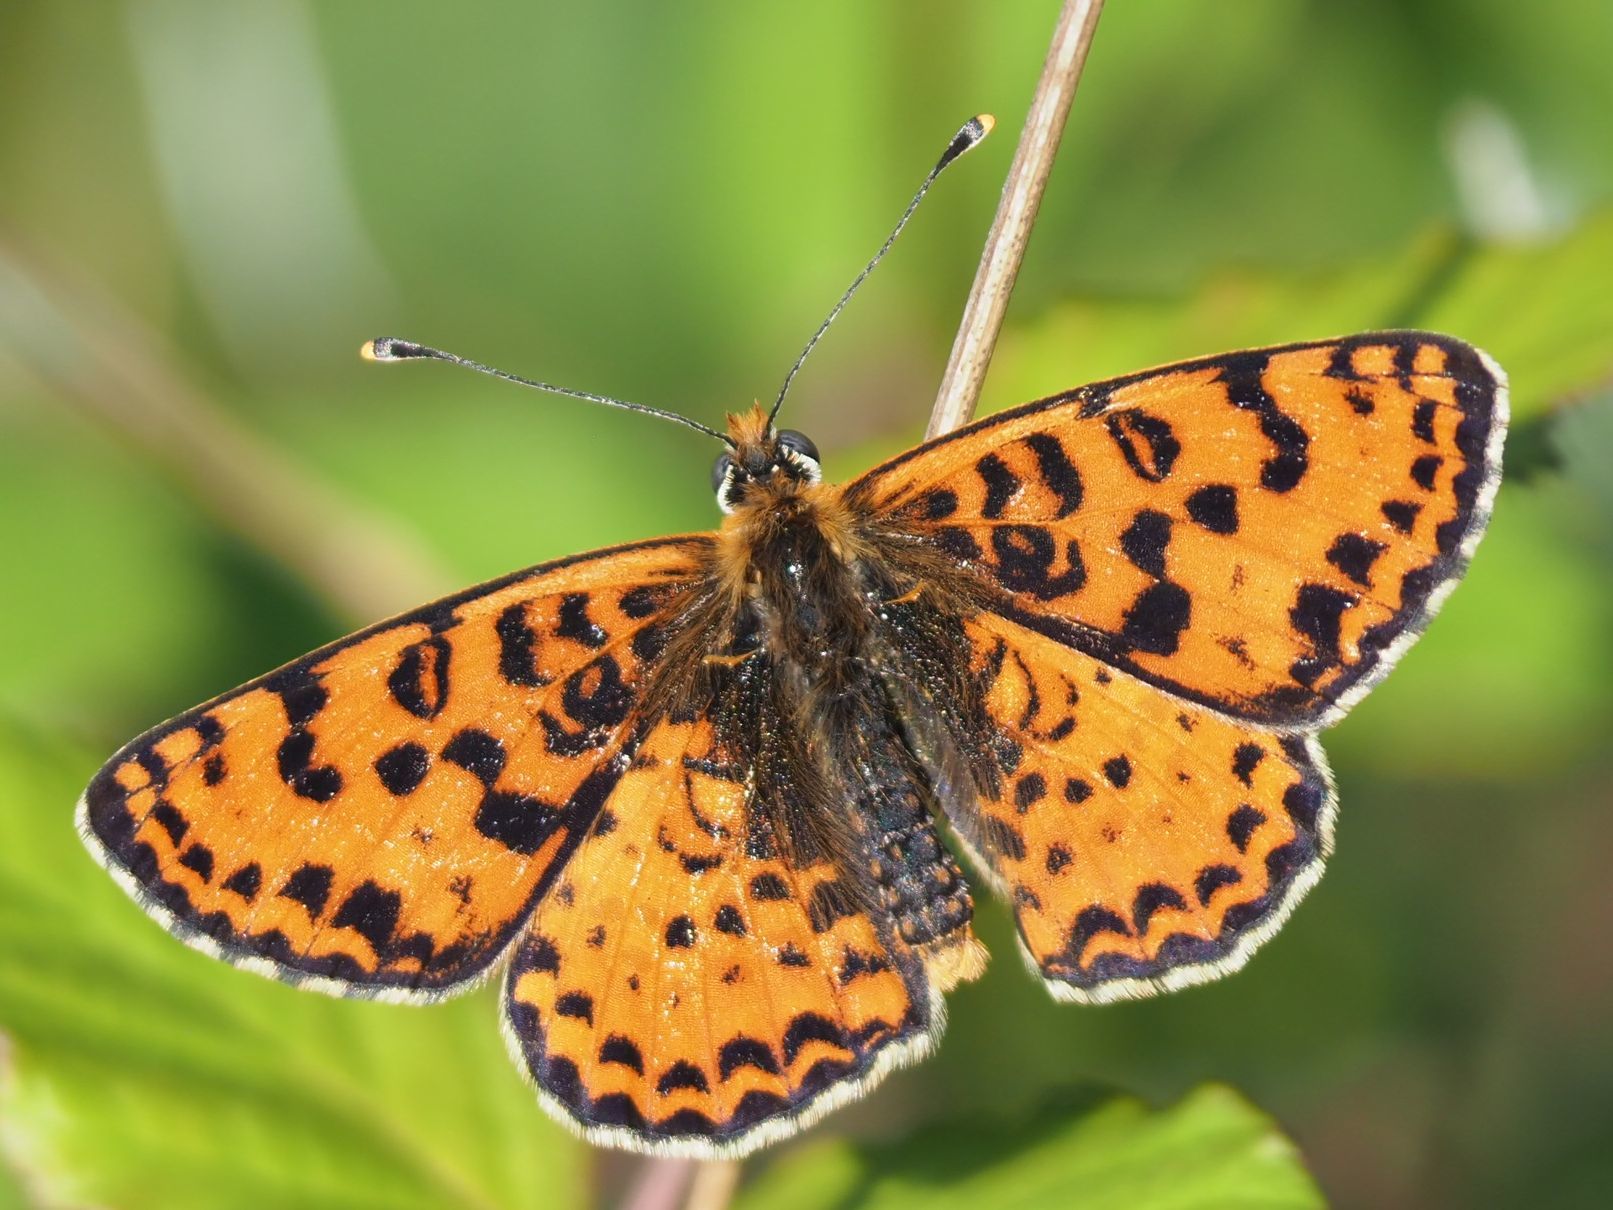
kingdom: Animalia
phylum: Arthropoda
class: Insecta
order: Lepidoptera
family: Nymphalidae
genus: Melitaea
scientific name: Melitaea didyma
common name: Spotted fritillary
